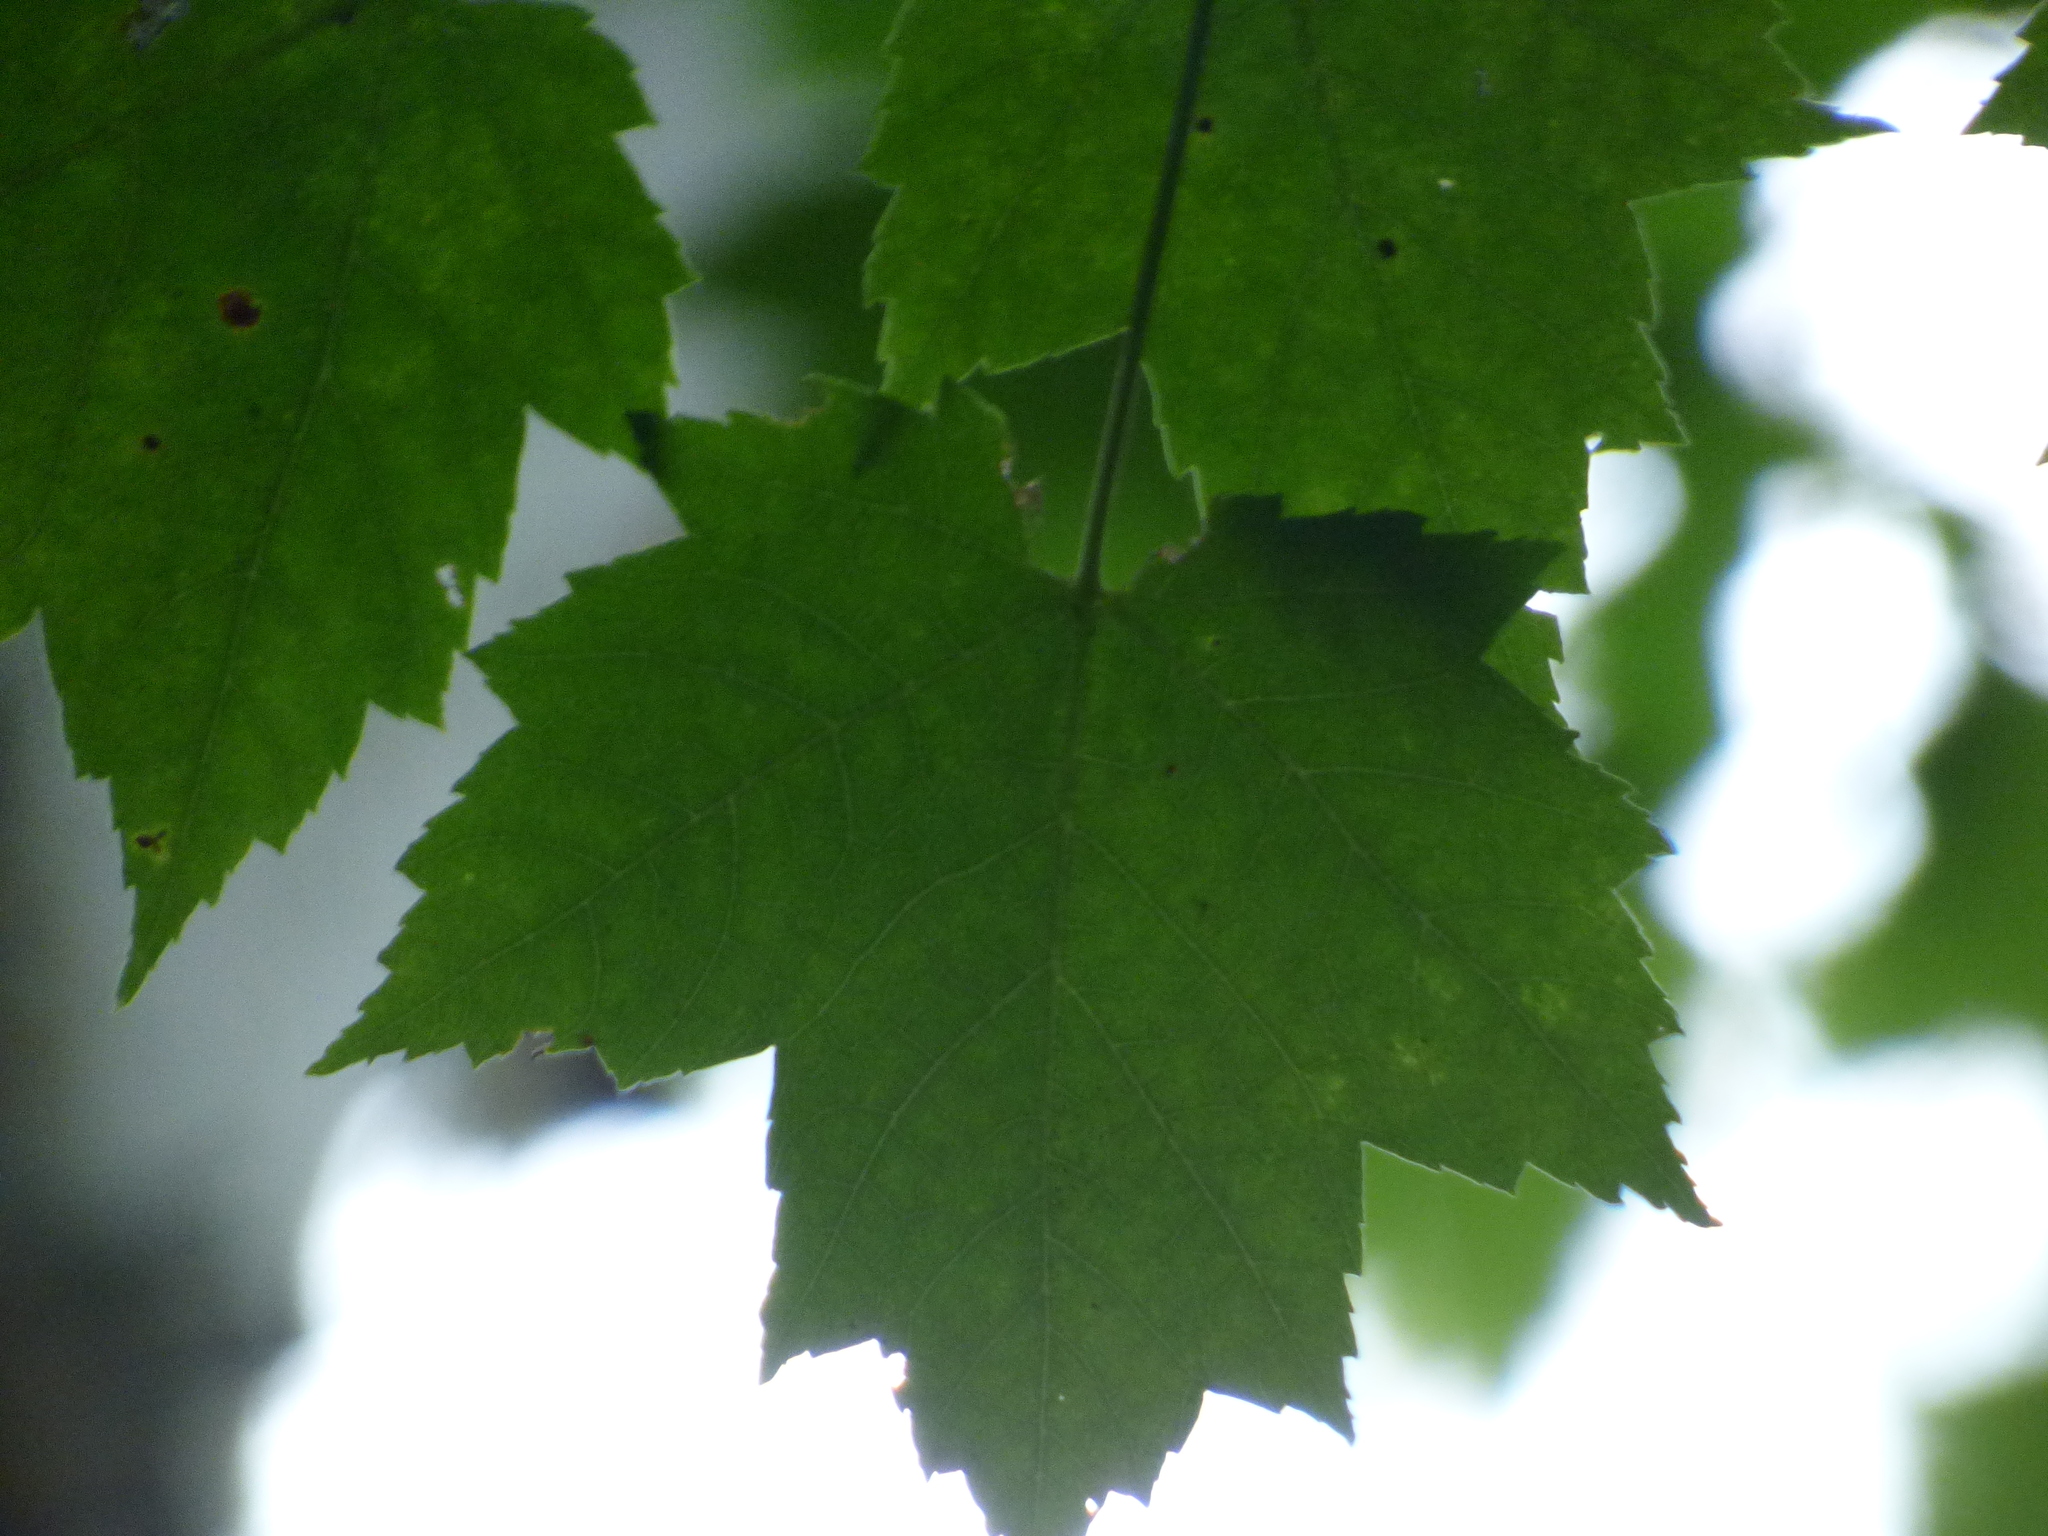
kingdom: Plantae
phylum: Tracheophyta
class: Magnoliopsida
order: Sapindales
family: Sapindaceae
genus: Acer
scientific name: Acer rubrum
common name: Red maple
